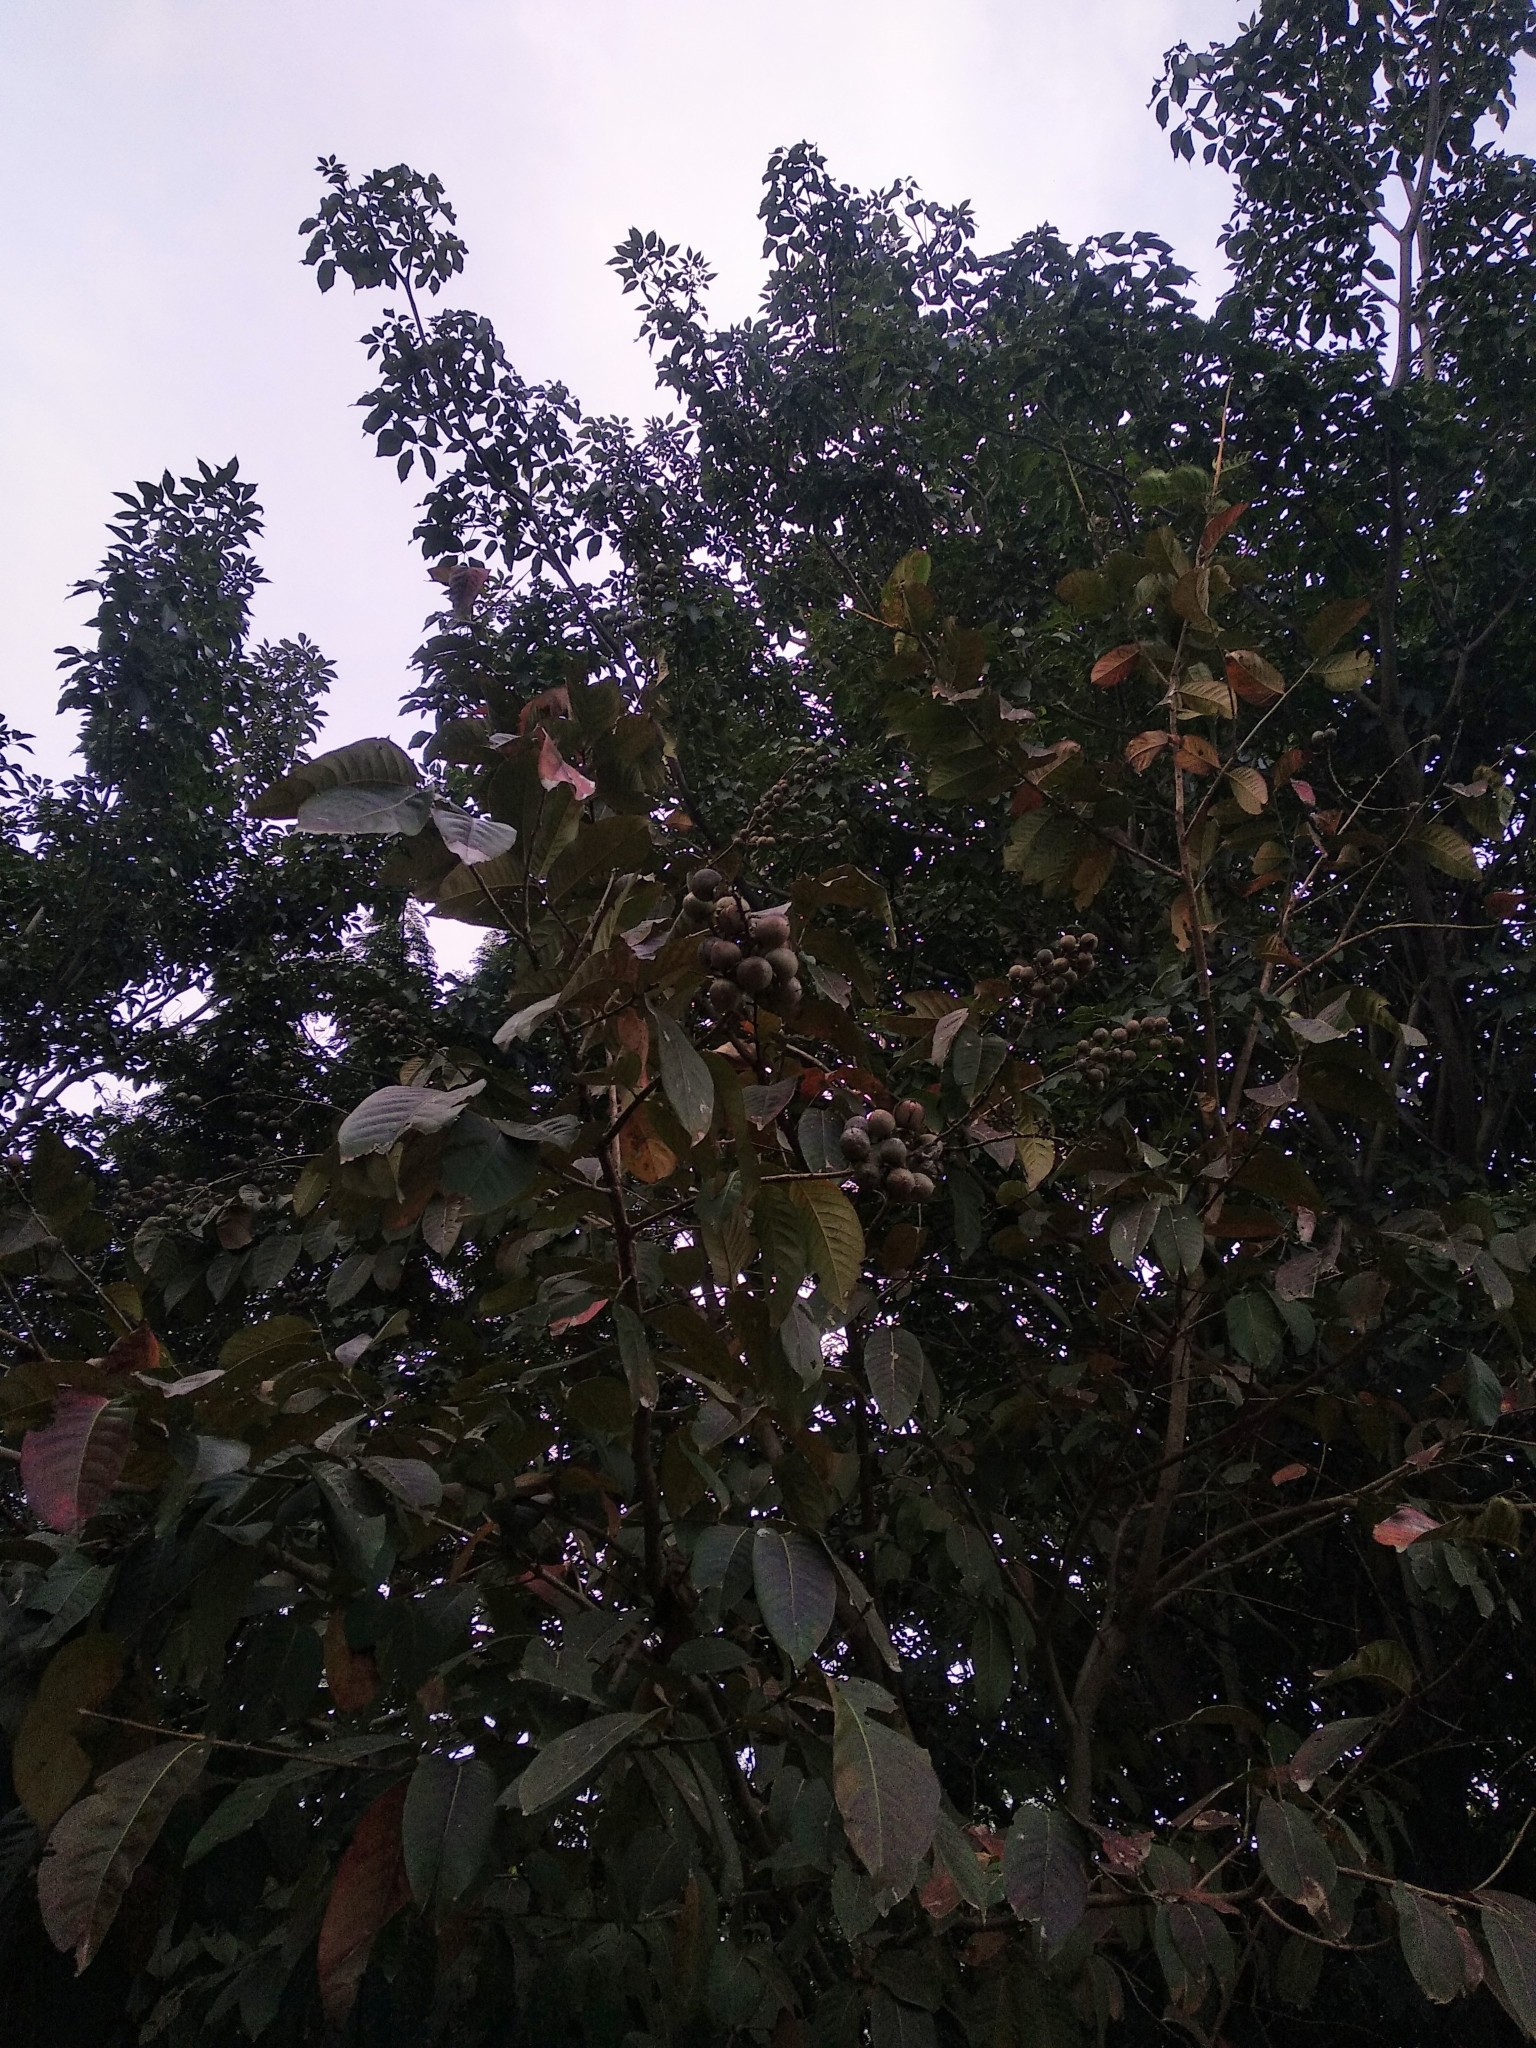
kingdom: Plantae
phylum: Tracheophyta
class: Magnoliopsida
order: Myrtales
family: Lythraceae
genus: Lagerstroemia
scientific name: Lagerstroemia speciosa
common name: Queen's crape-myrtle
